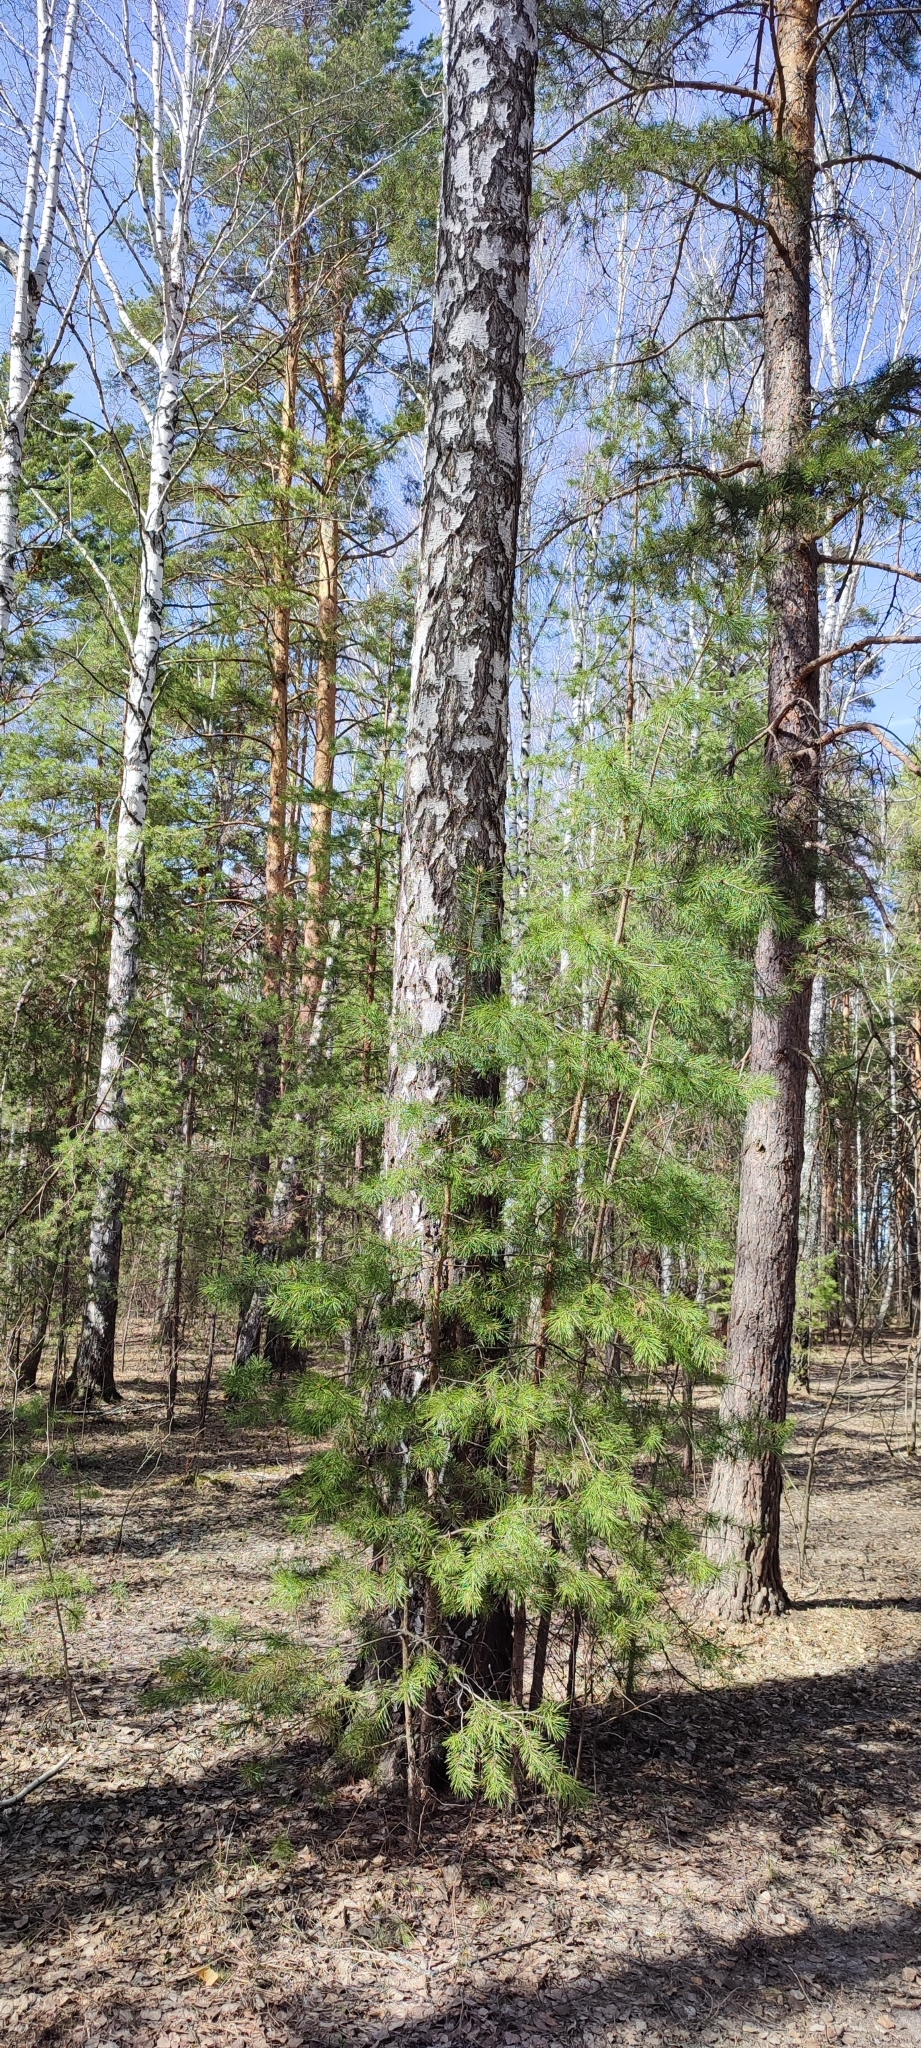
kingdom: Plantae
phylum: Tracheophyta
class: Magnoliopsida
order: Fagales
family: Betulaceae
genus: Betula
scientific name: Betula pendula
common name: Silver birch
